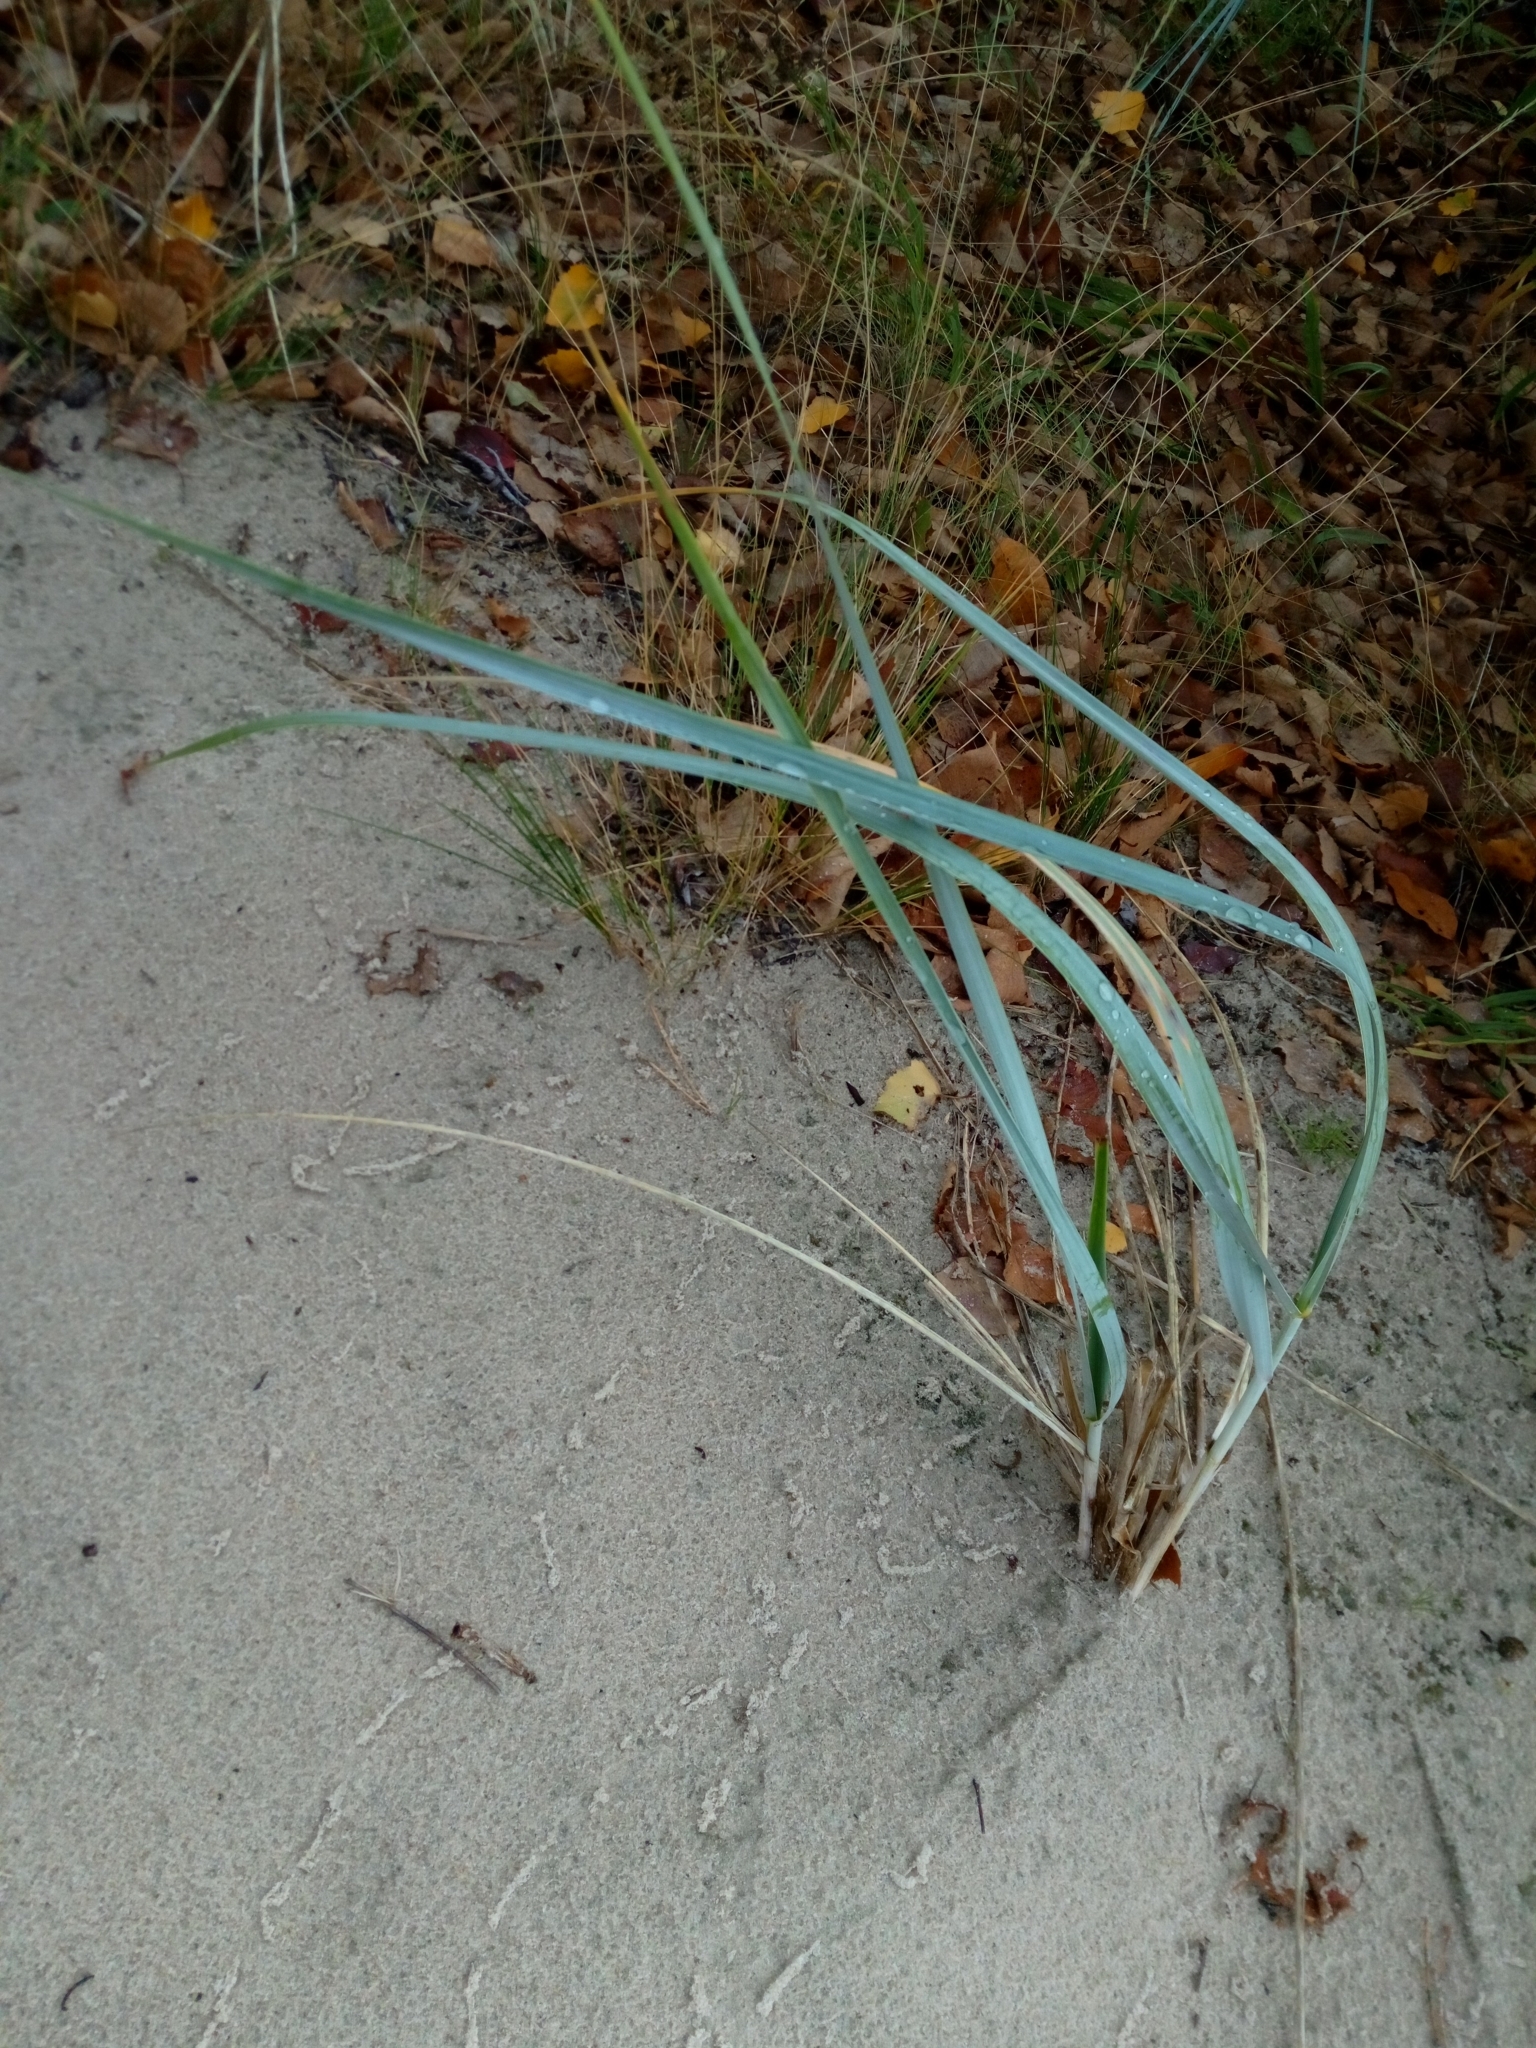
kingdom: Plantae
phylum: Tracheophyta
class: Liliopsida
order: Poales
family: Poaceae
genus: Leymus
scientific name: Leymus arenarius
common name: Lyme-grass
